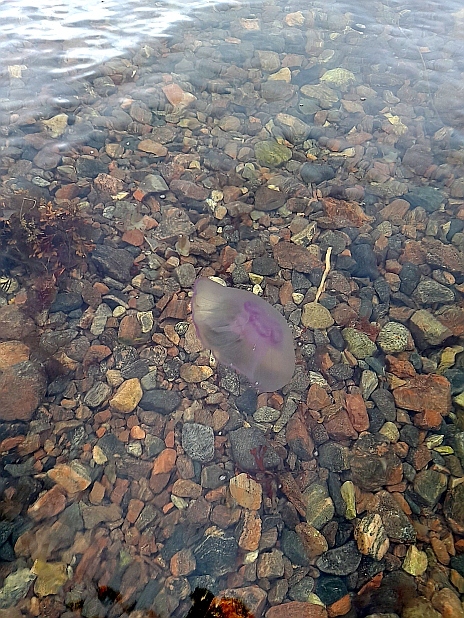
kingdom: Animalia
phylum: Cnidaria
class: Scyphozoa
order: Semaeostomeae
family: Ulmaridae
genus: Aurelia
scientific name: Aurelia aurita
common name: Moon jellyfish
